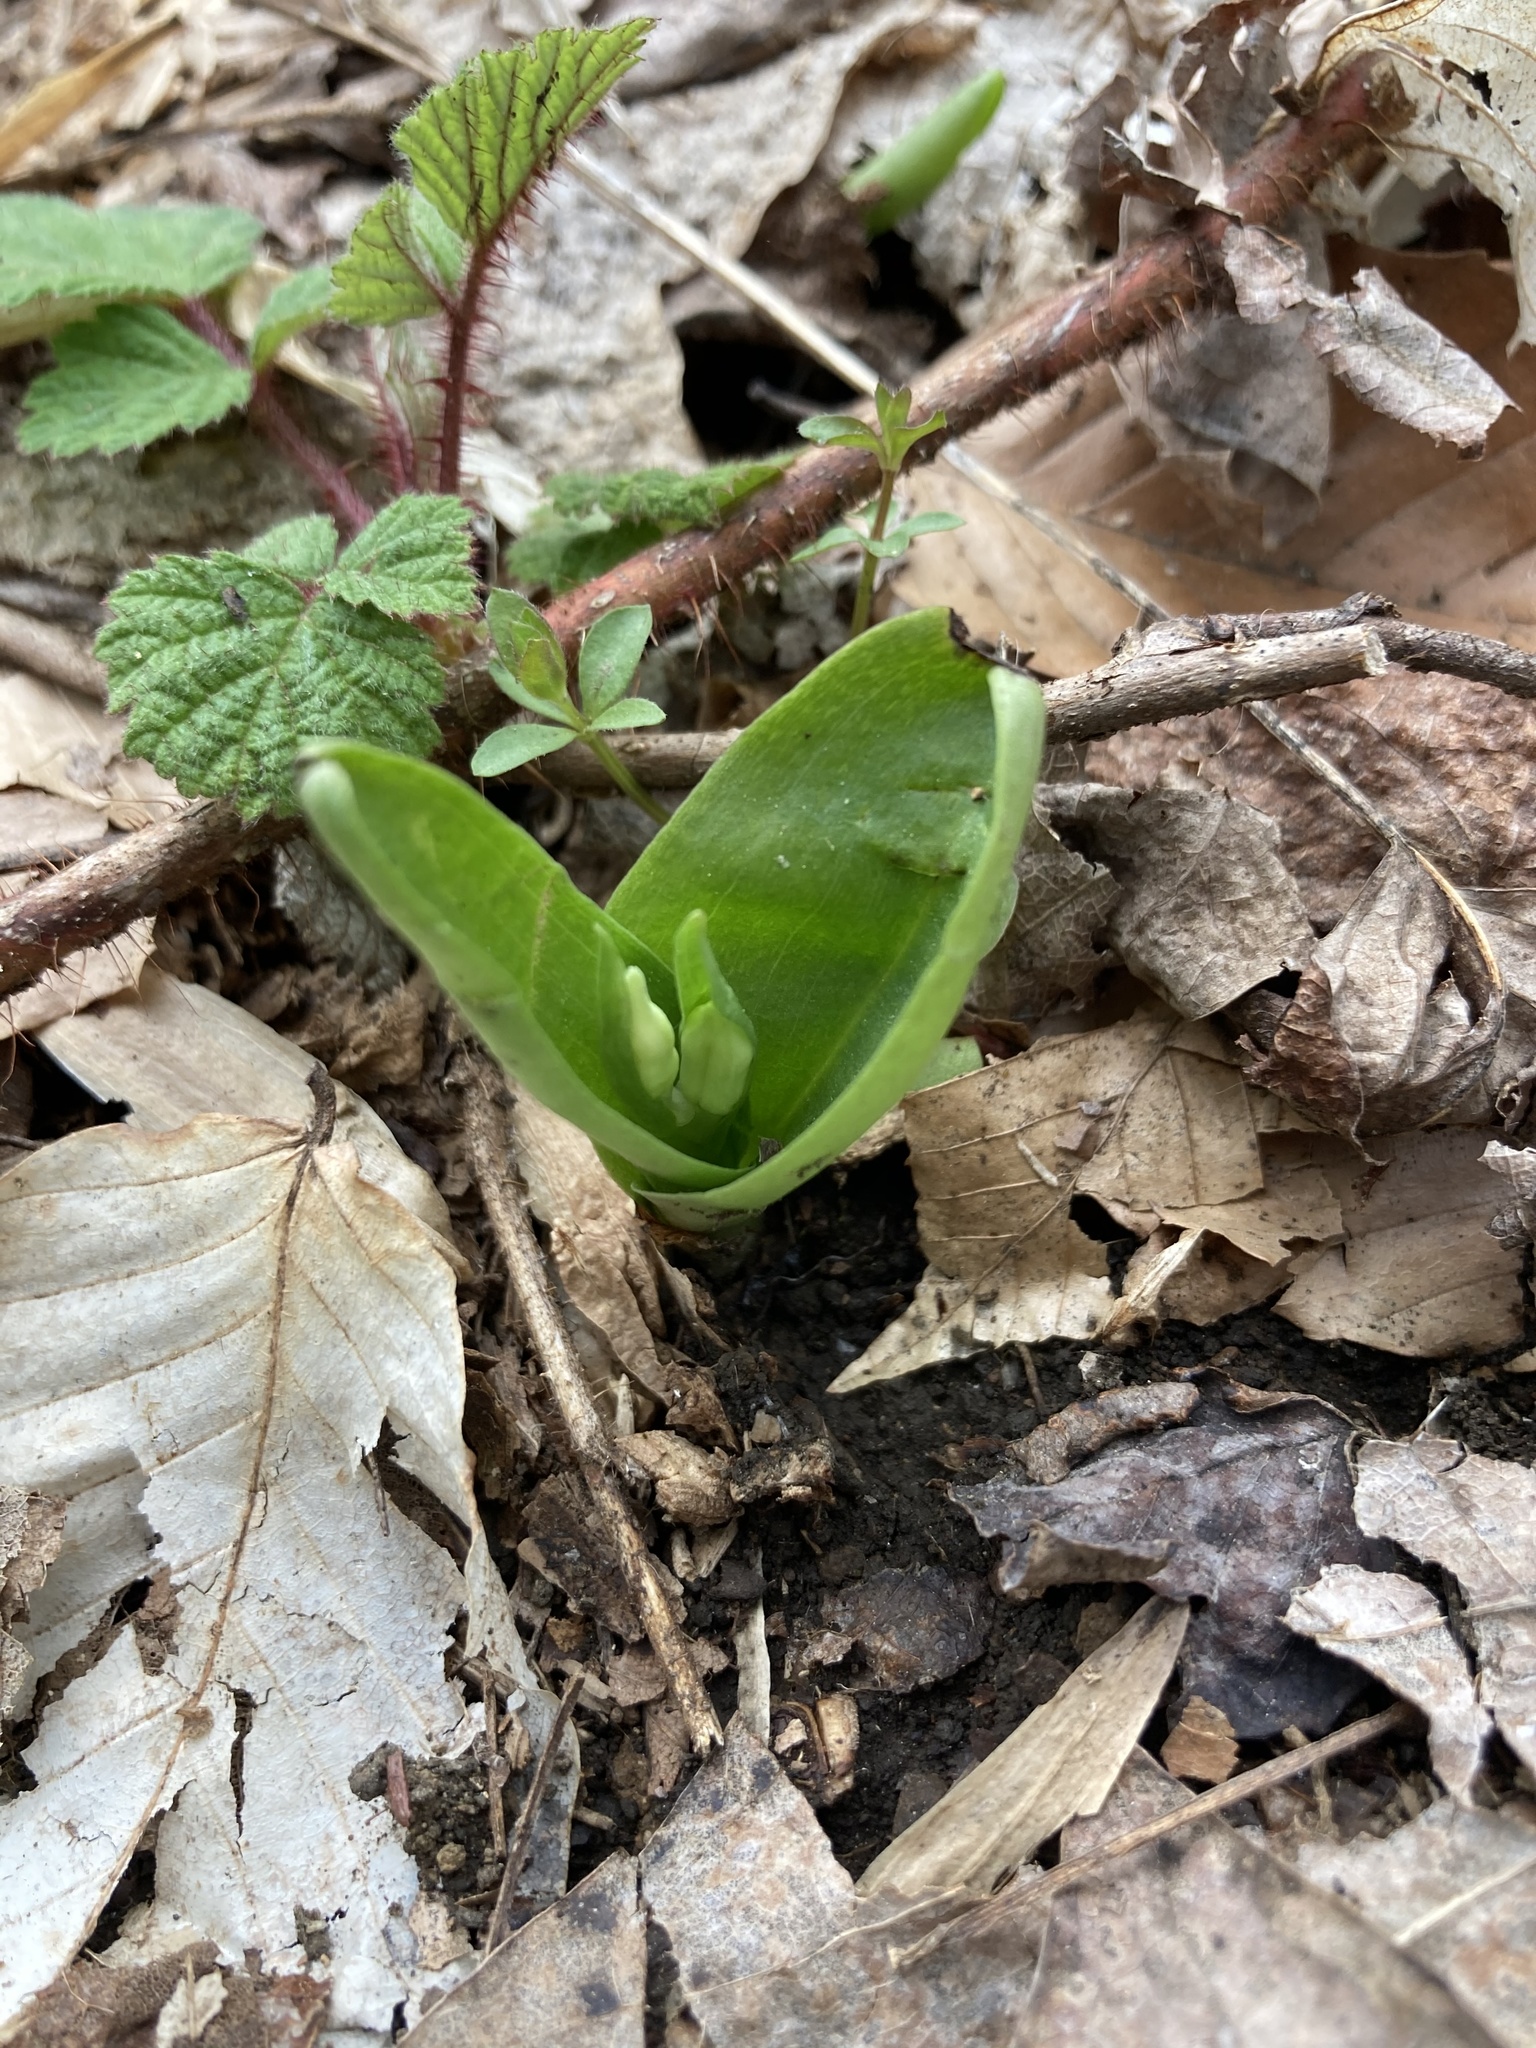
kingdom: Plantae
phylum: Tracheophyta
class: Liliopsida
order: Asparagales
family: Orchidaceae
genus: Galearis
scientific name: Galearis spectabilis
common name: Purple-hooded orchis
